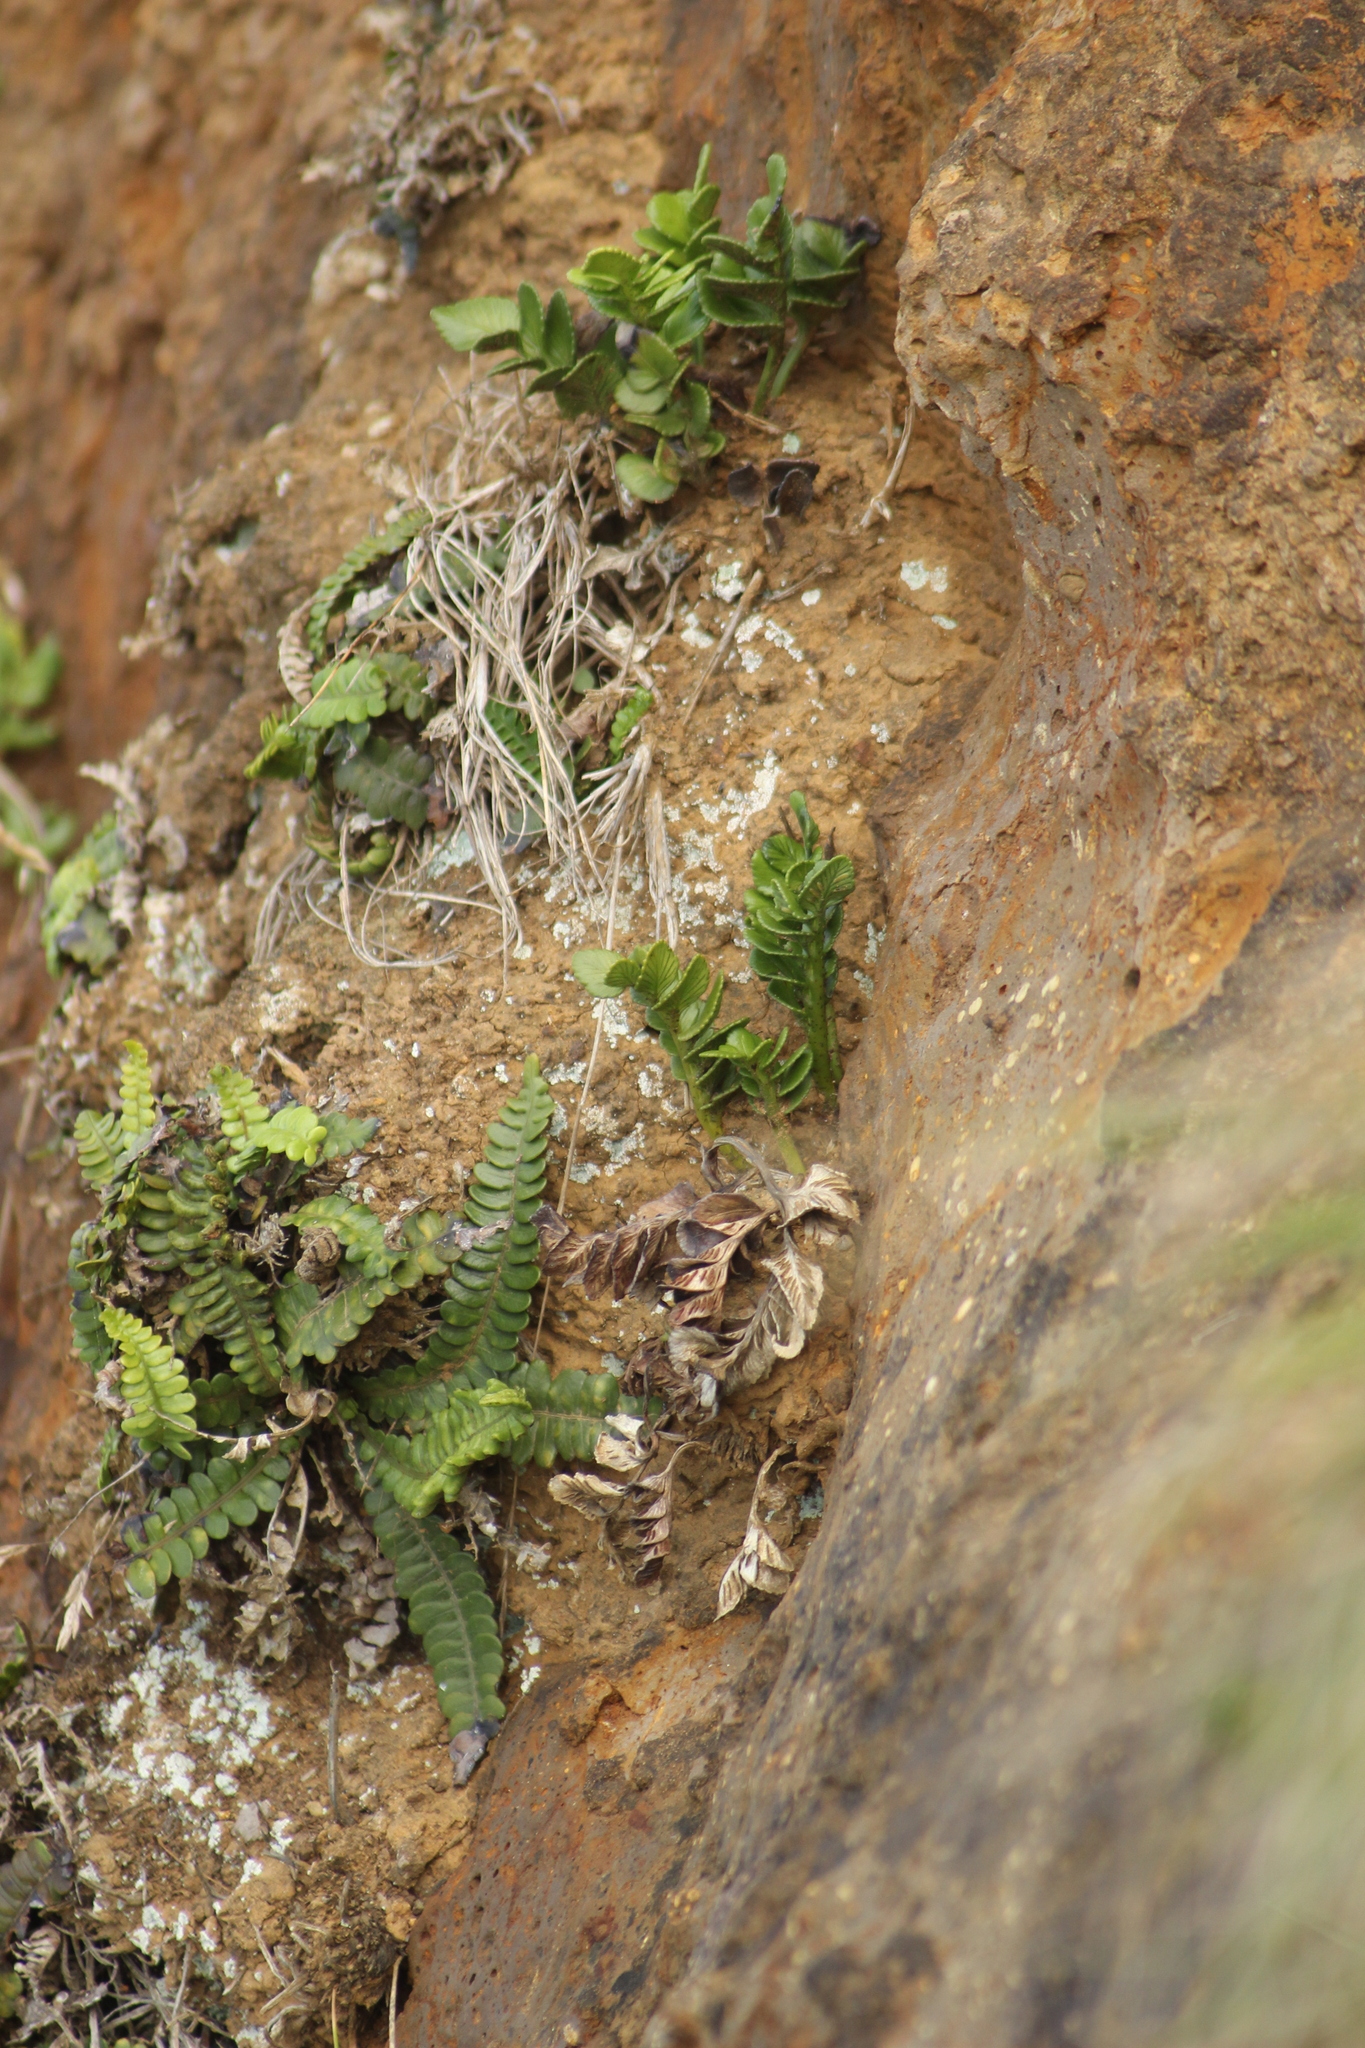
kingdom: Plantae
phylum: Tracheophyta
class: Polypodiopsida
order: Polypodiales
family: Aspleniaceae
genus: Asplenium
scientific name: Asplenium obtusatum
